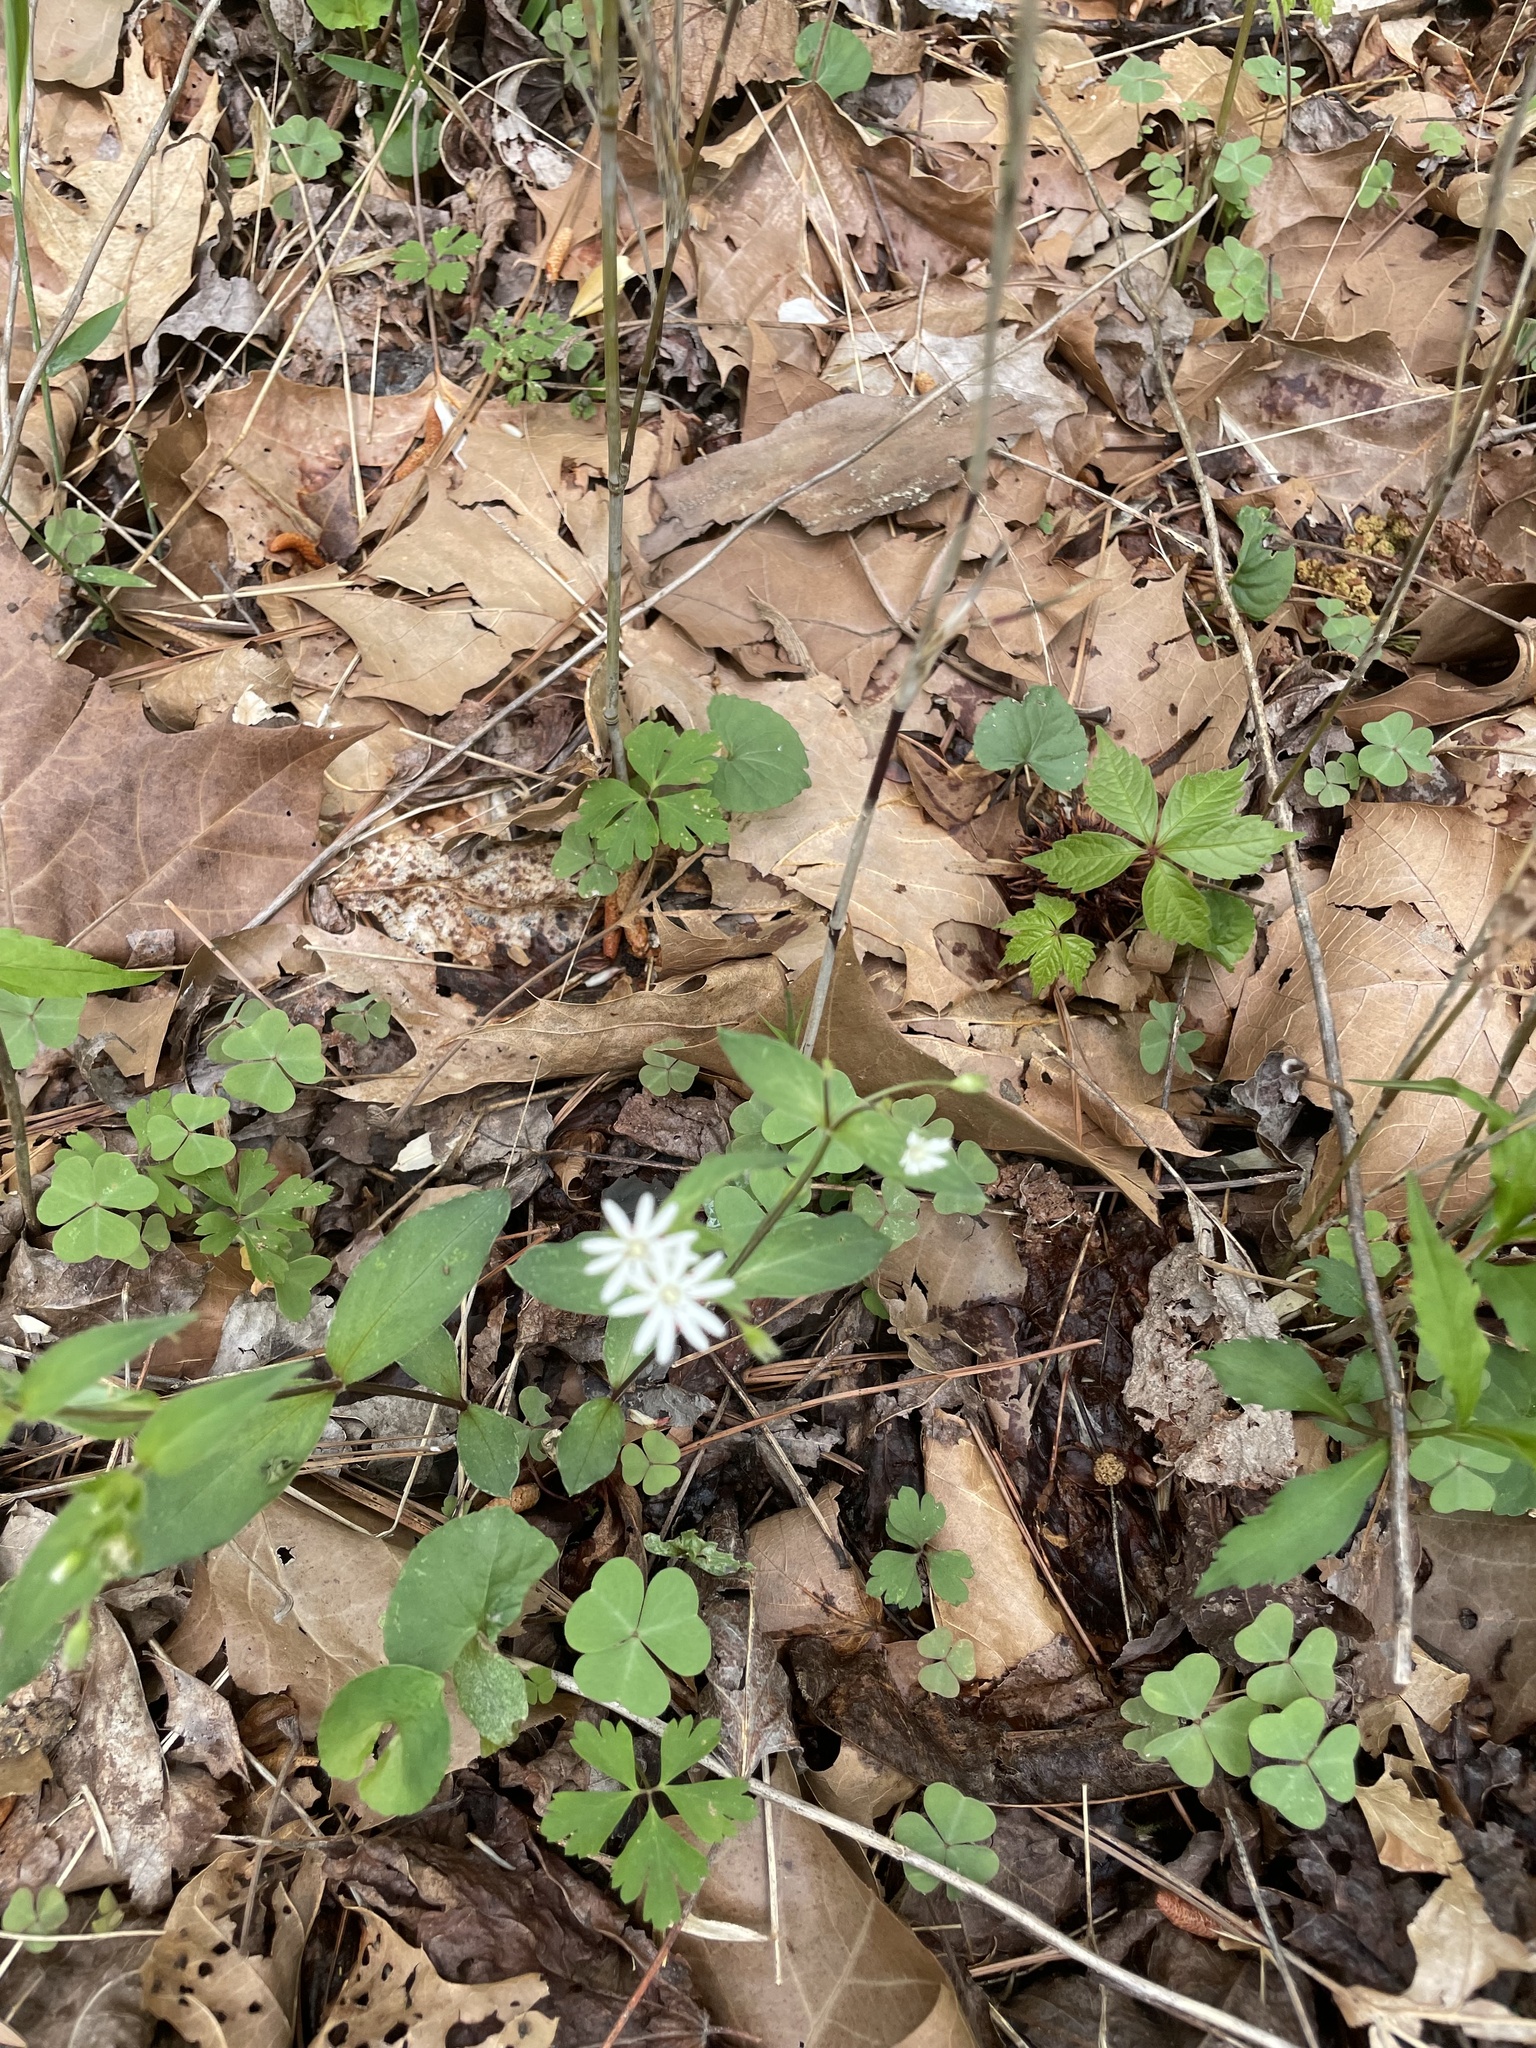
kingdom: Plantae
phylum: Tracheophyta
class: Magnoliopsida
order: Caryophyllales
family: Caryophyllaceae
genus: Stellaria
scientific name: Stellaria pubera
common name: Star chickweed
